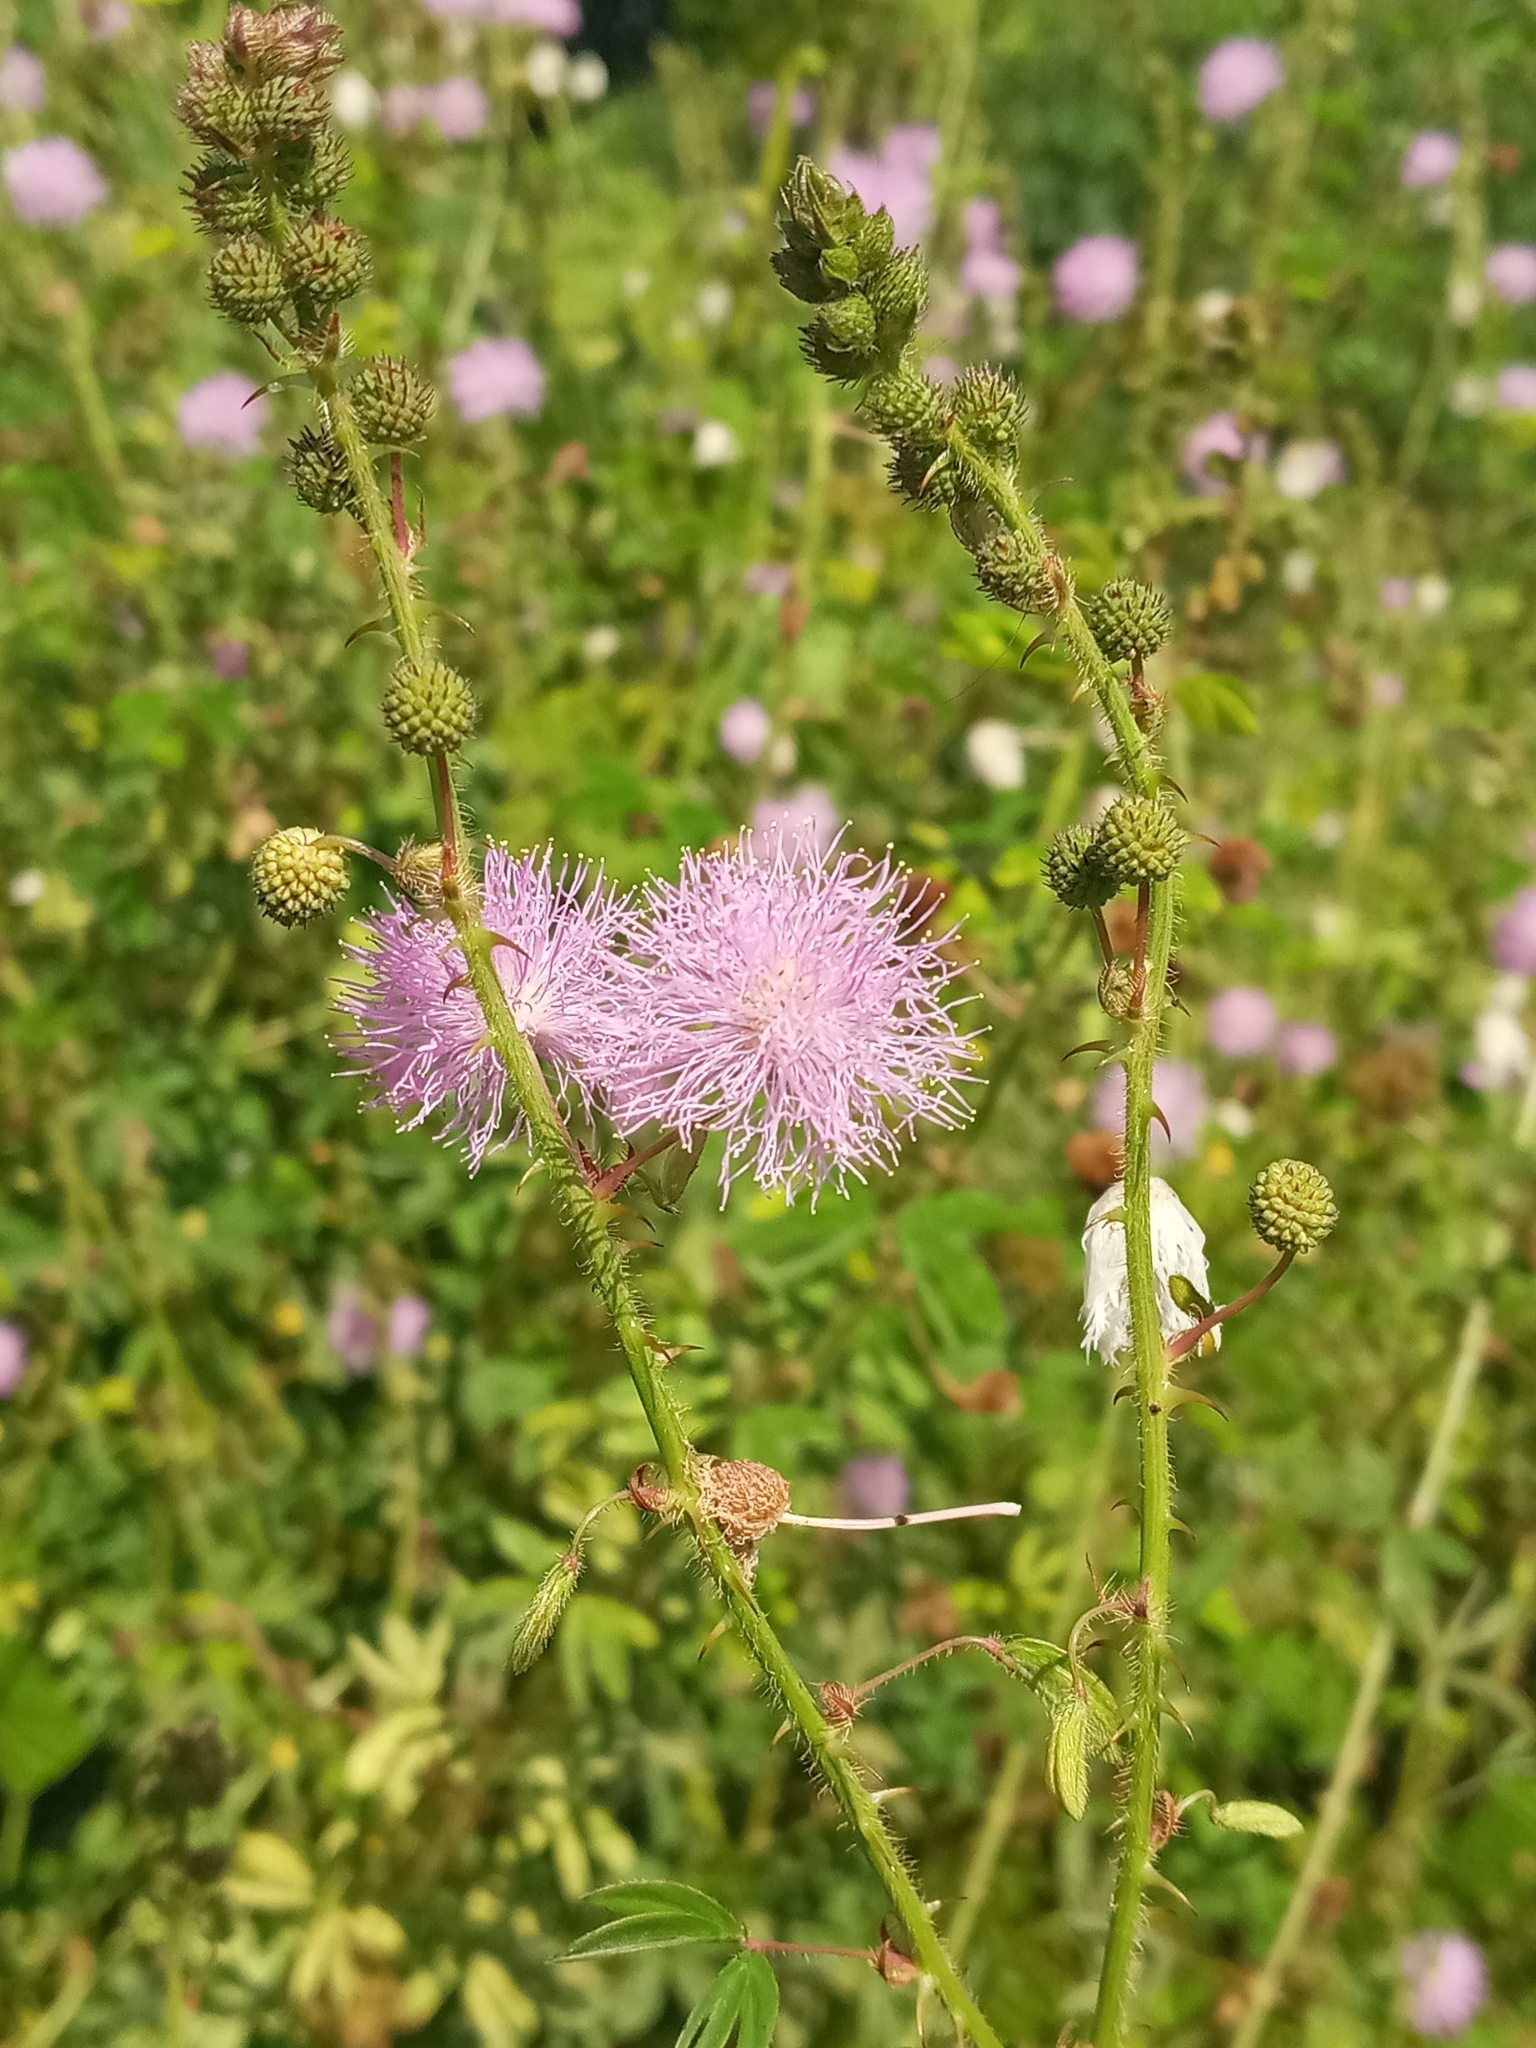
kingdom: Plantae
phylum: Tracheophyta
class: Magnoliopsida
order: Fabales
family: Fabaceae
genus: Mimosa
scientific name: Mimosa pudica
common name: Sensitive plant
